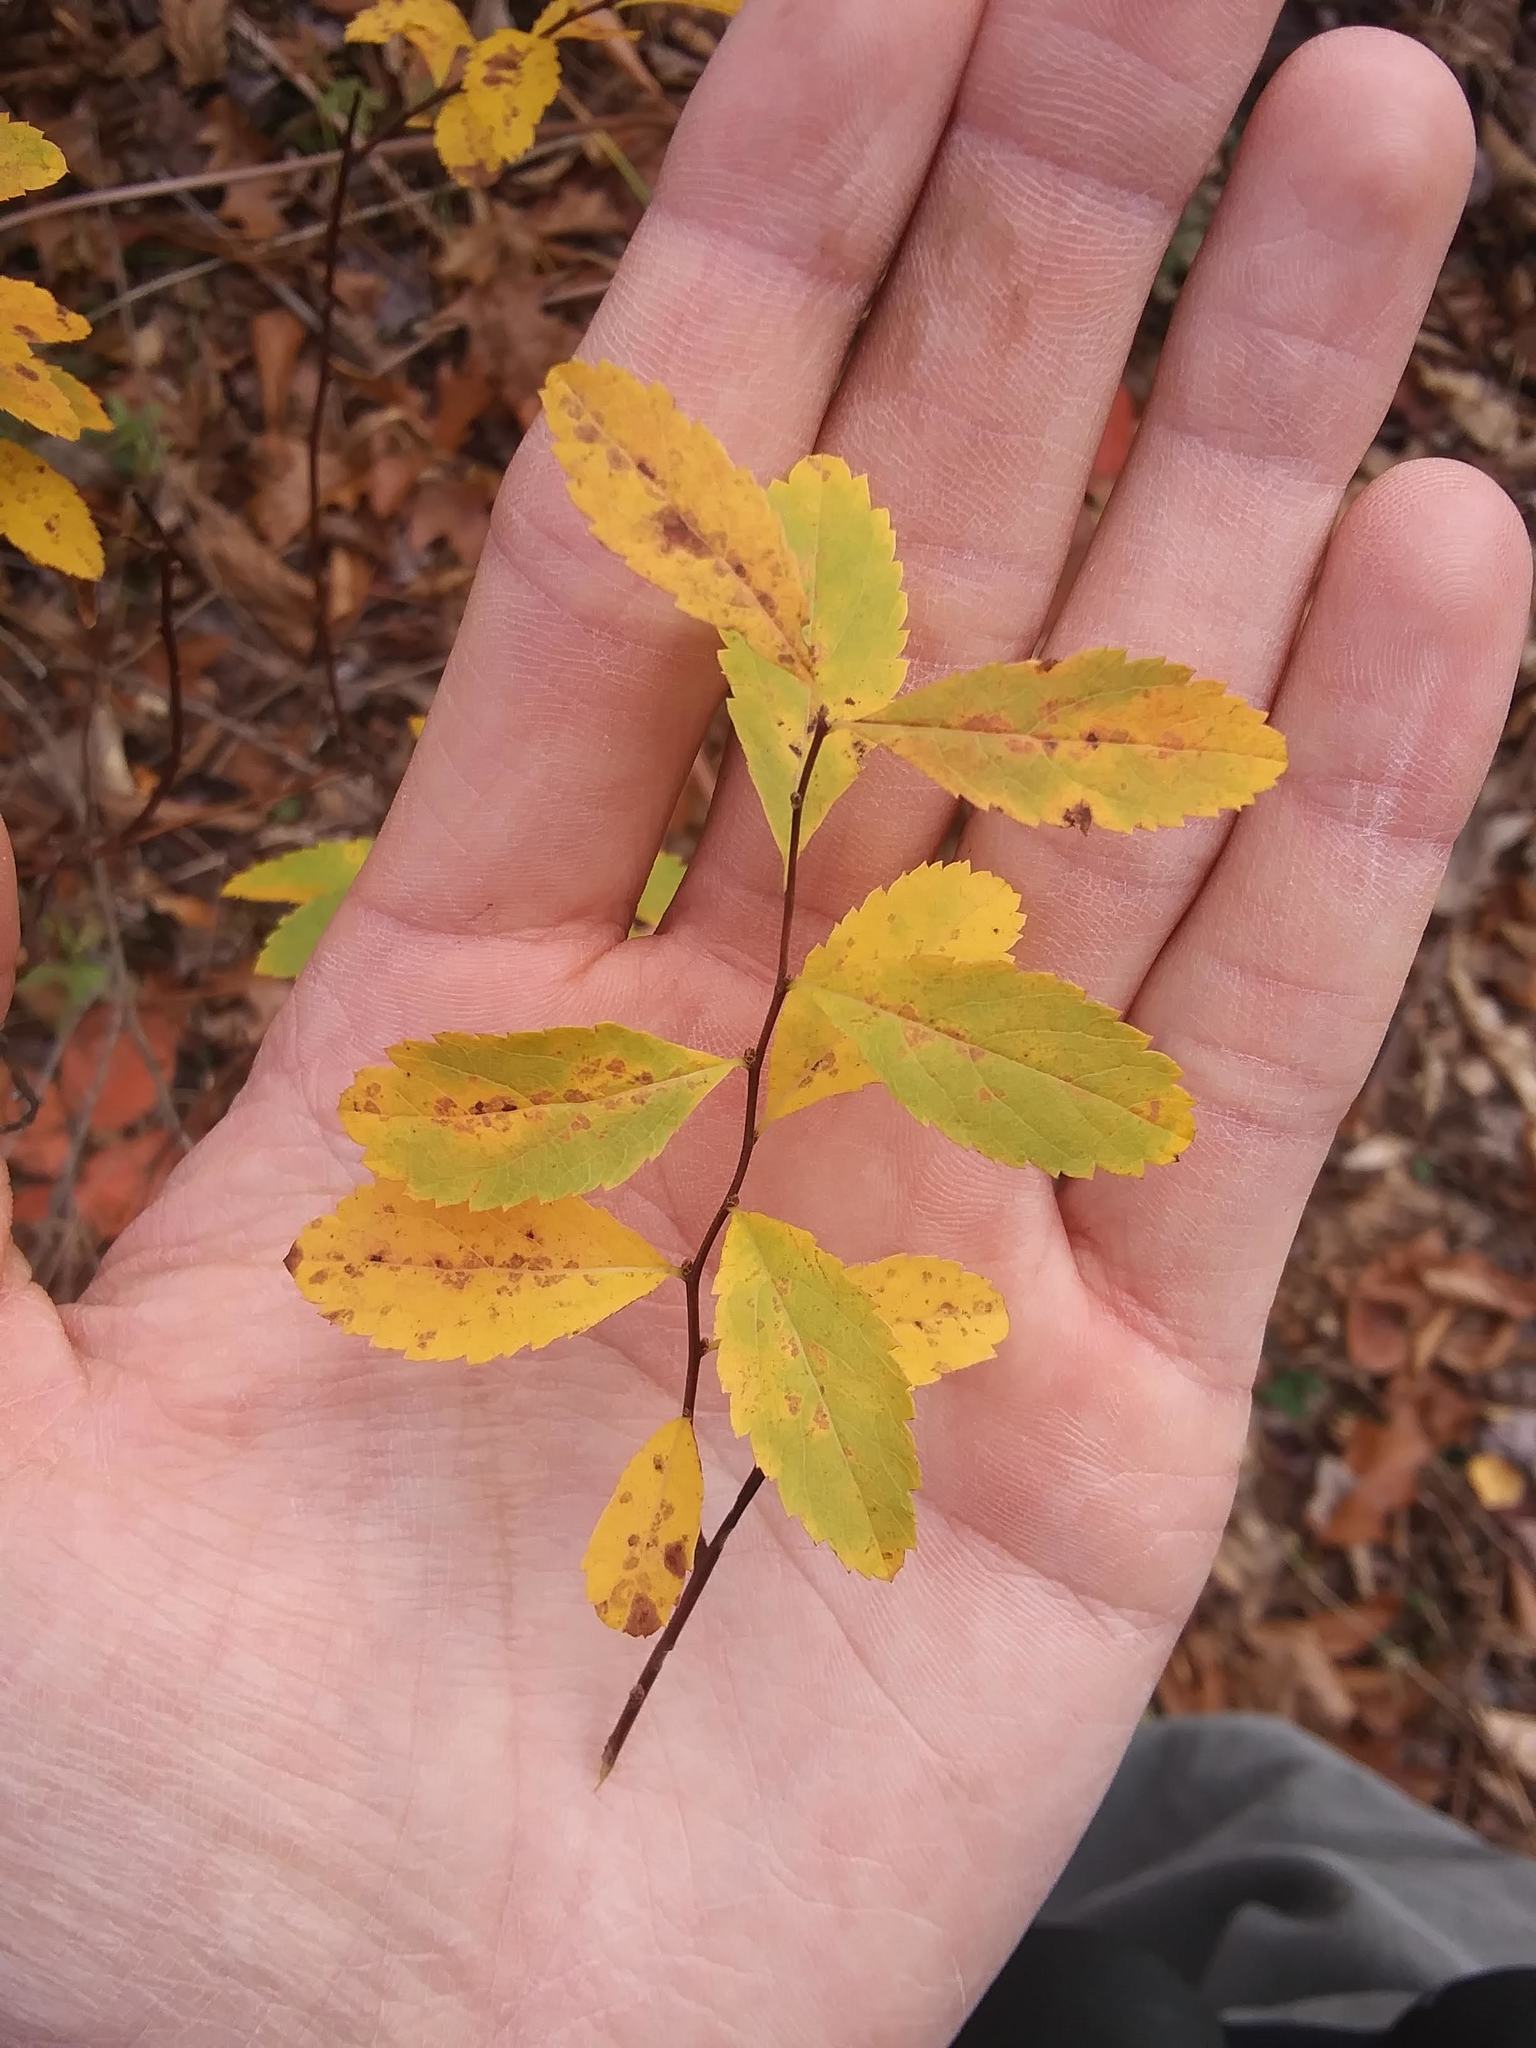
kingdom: Plantae
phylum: Tracheophyta
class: Magnoliopsida
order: Rosales
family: Rosaceae
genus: Spiraea
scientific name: Spiraea alba
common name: Pale bridewort
